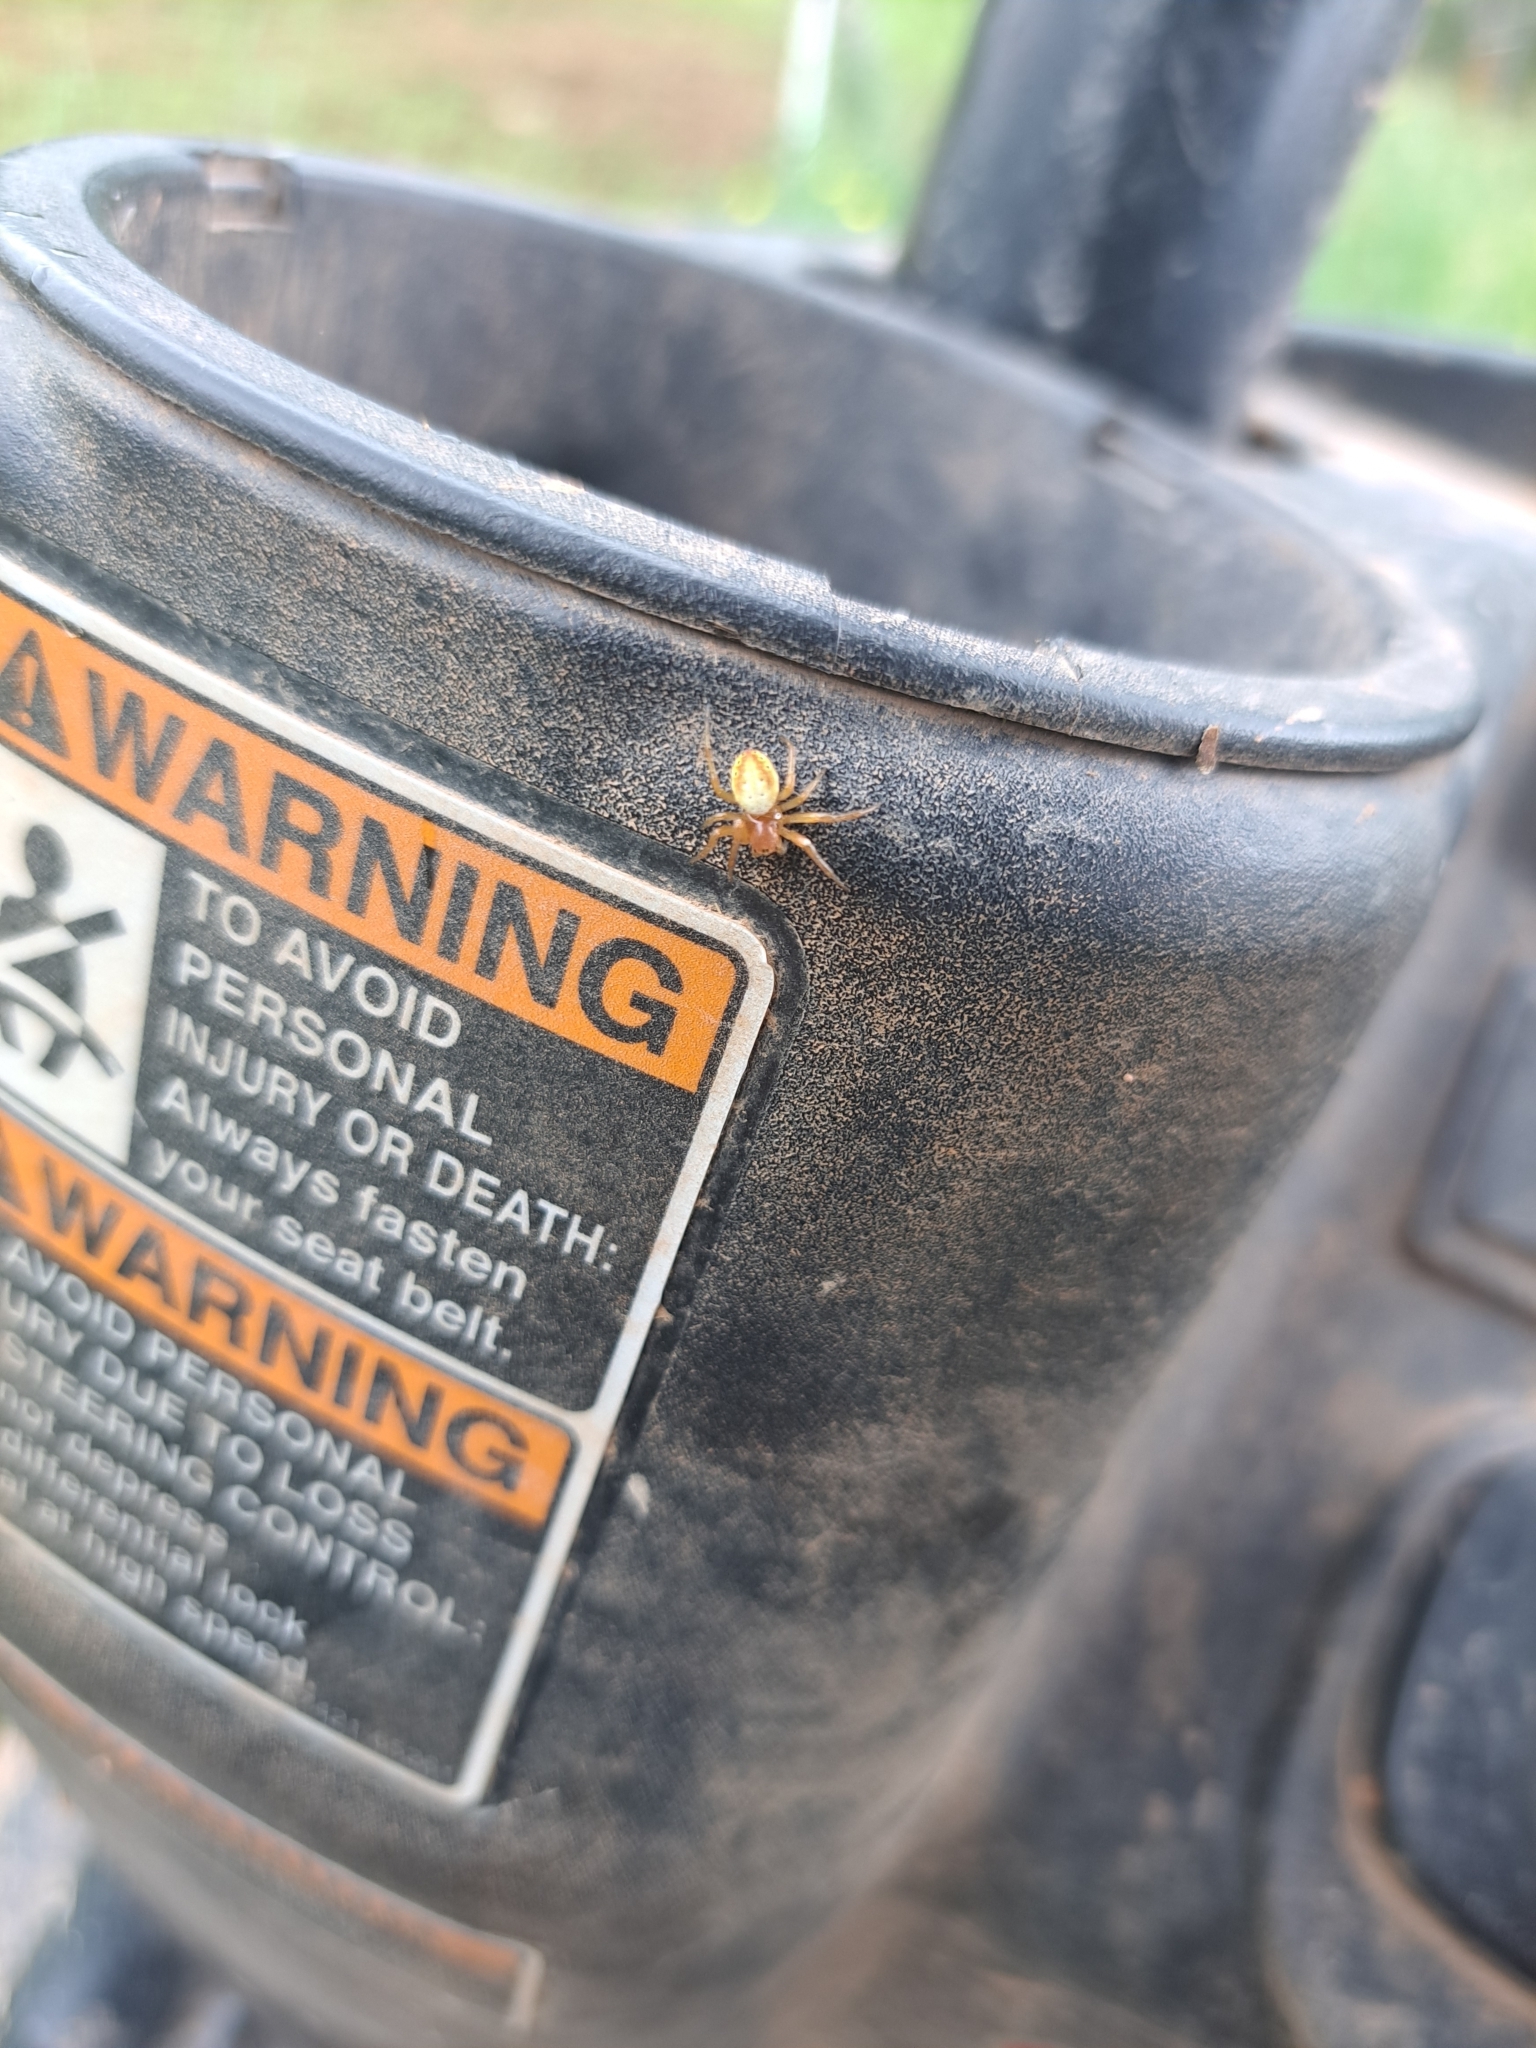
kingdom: Animalia
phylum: Arthropoda
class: Arachnida
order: Araneae
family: Araneidae
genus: Araniella
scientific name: Araniella displicata
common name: Sixspotted orb weaver
